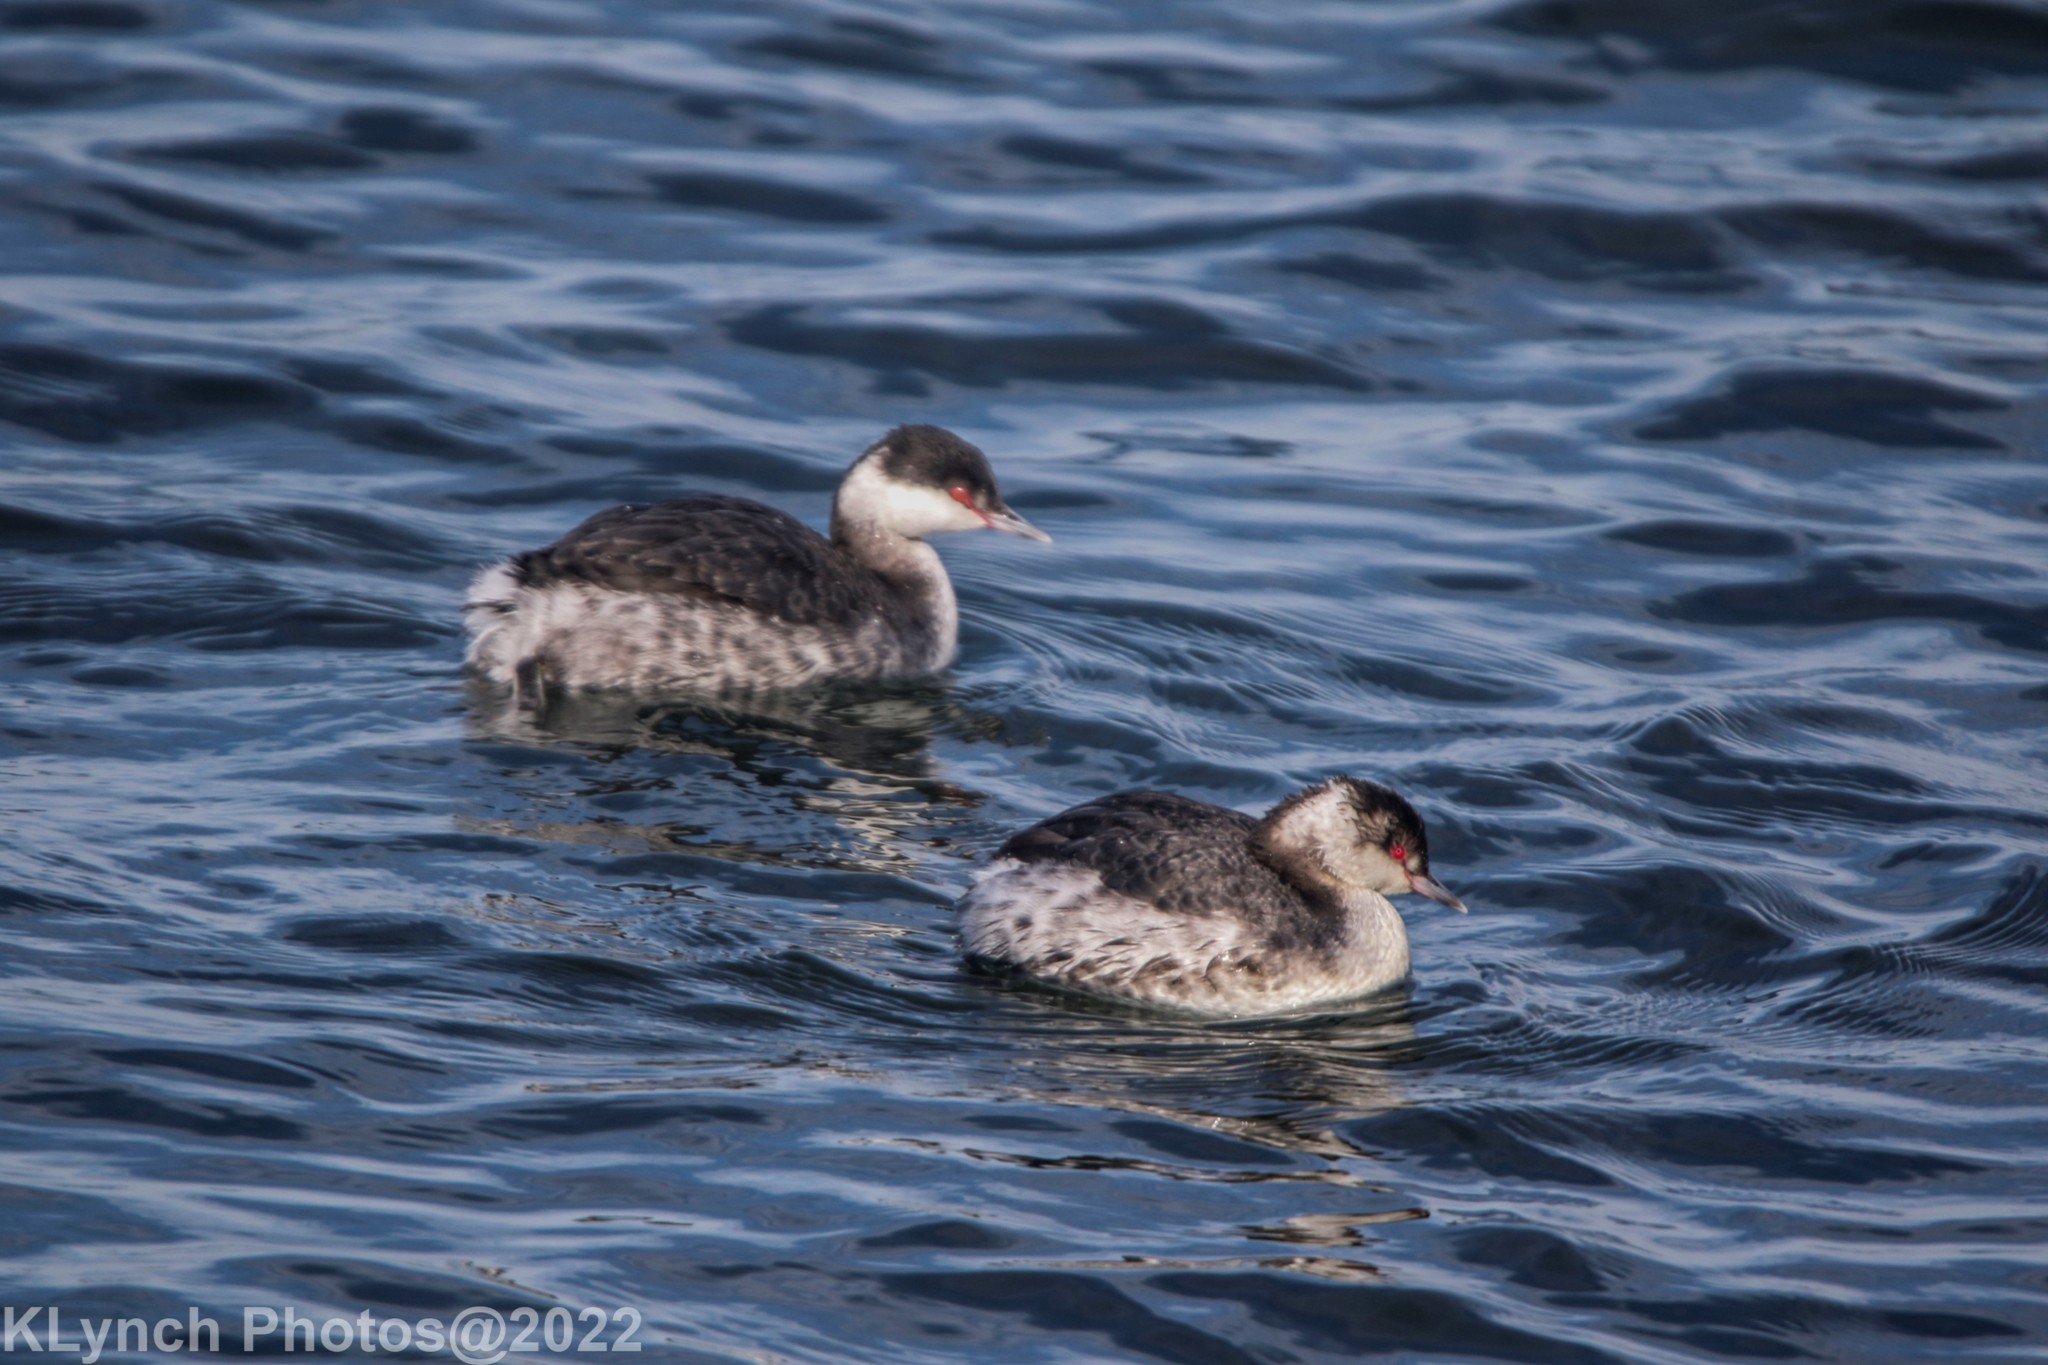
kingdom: Animalia
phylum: Chordata
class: Aves
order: Podicipediformes
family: Podicipedidae
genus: Podiceps
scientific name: Podiceps auritus
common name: Horned grebe
